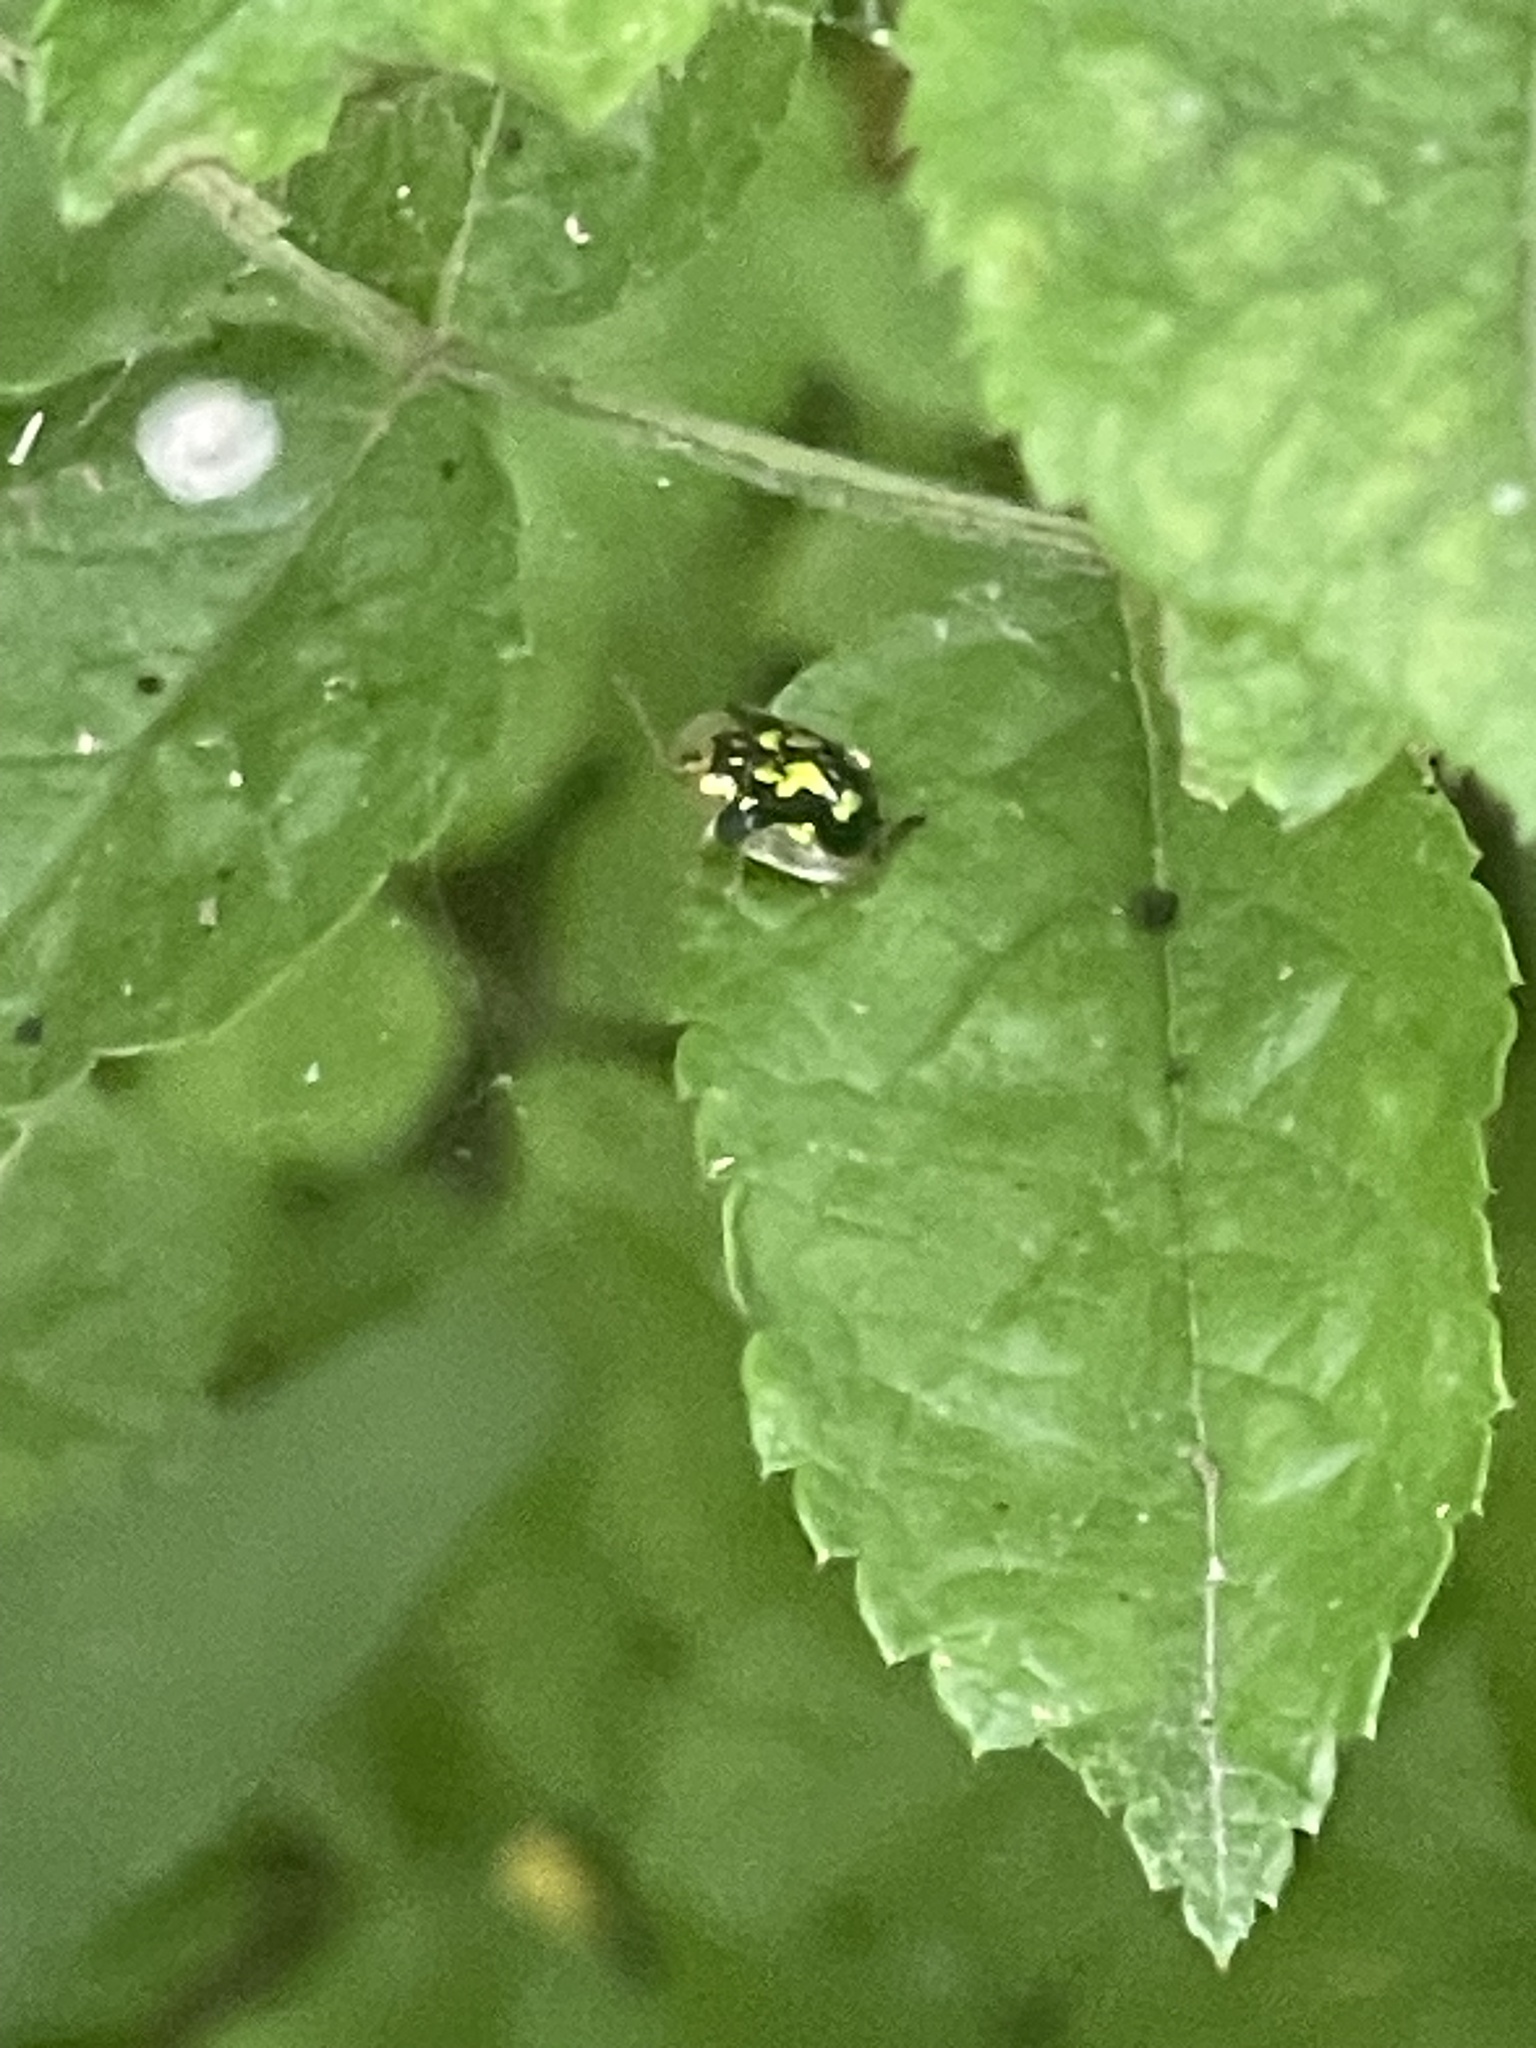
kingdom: Animalia
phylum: Arthropoda
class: Insecta
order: Coleoptera
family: Chrysomelidae
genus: Deloyala
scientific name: Deloyala guttata
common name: Mottled tortoise beetle
